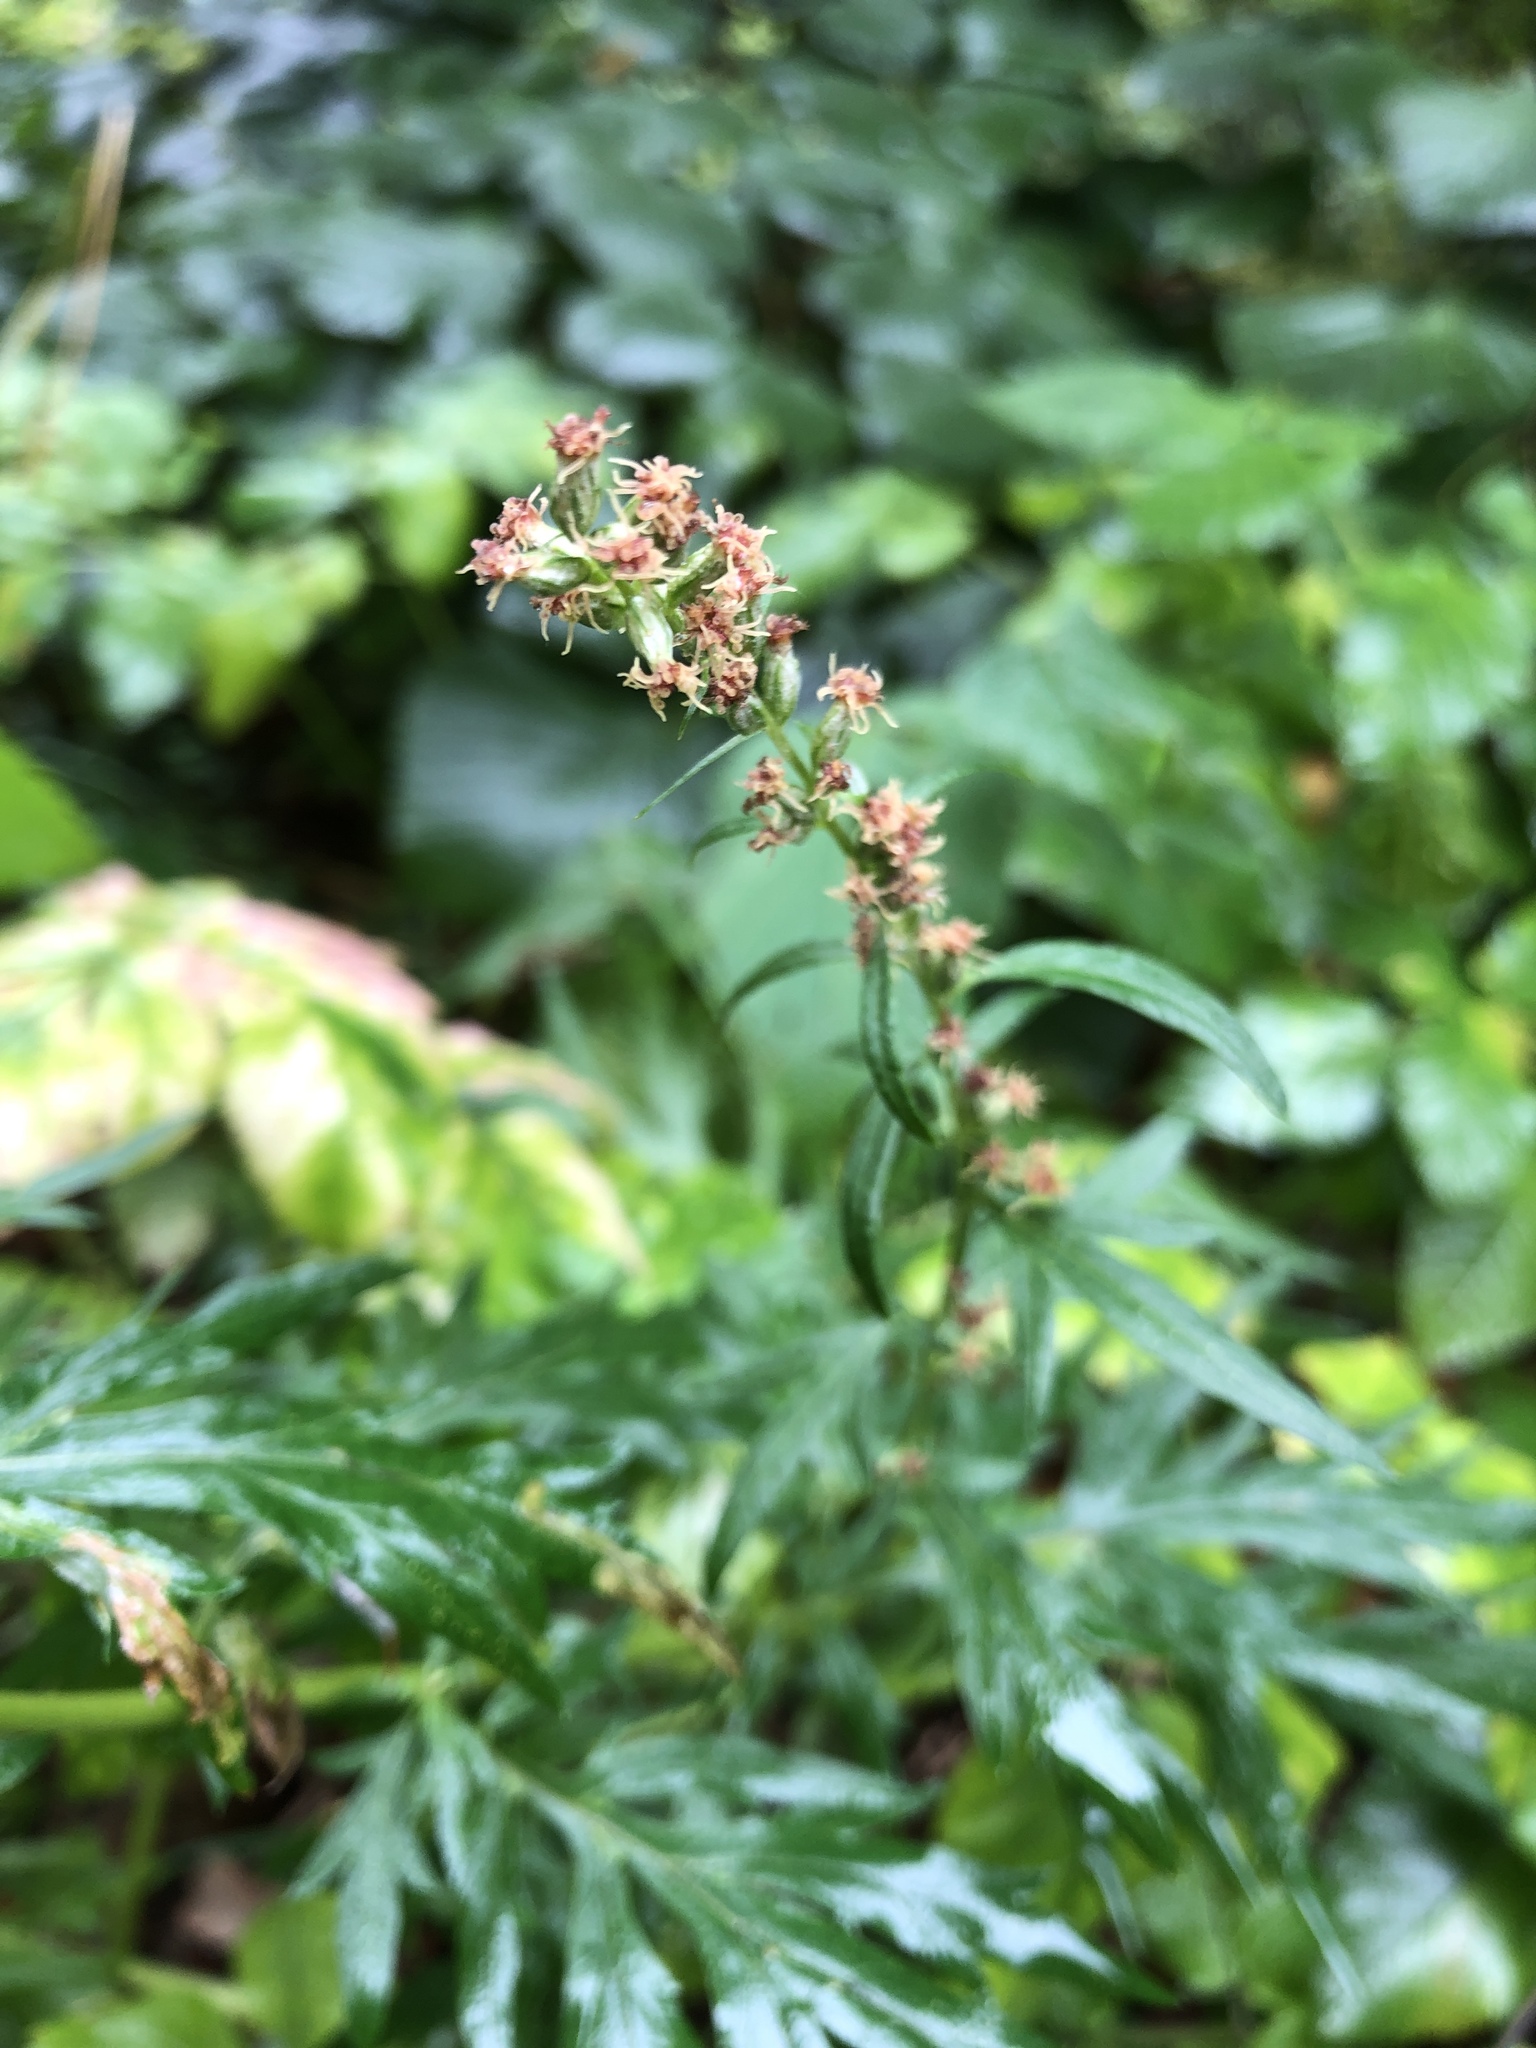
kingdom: Plantae
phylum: Tracheophyta
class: Magnoliopsida
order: Asterales
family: Asteraceae
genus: Artemisia
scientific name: Artemisia vulgaris
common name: Mugwort
